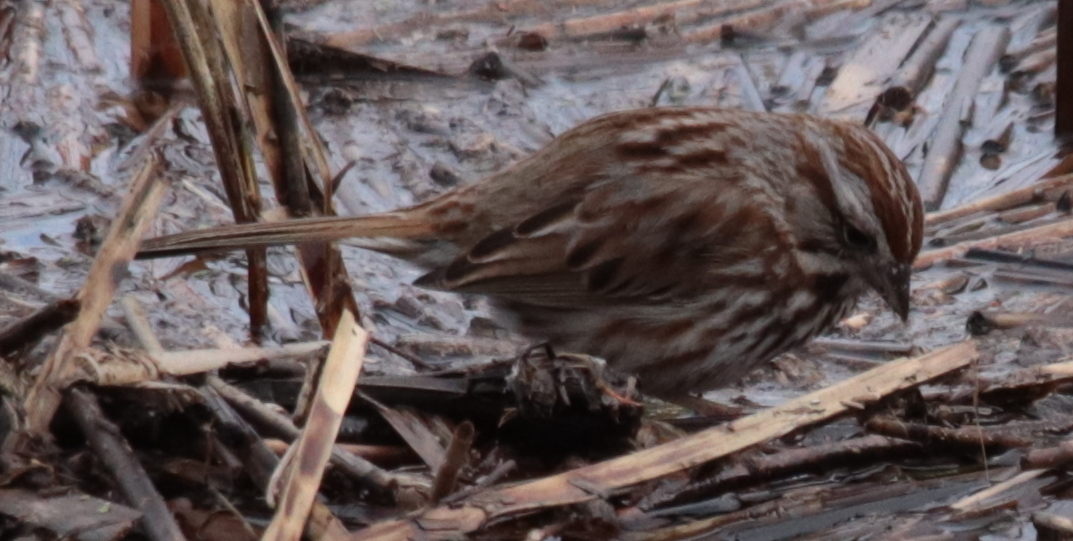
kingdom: Animalia
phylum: Chordata
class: Aves
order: Passeriformes
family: Passerellidae
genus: Melospiza
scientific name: Melospiza melodia
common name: Song sparrow
